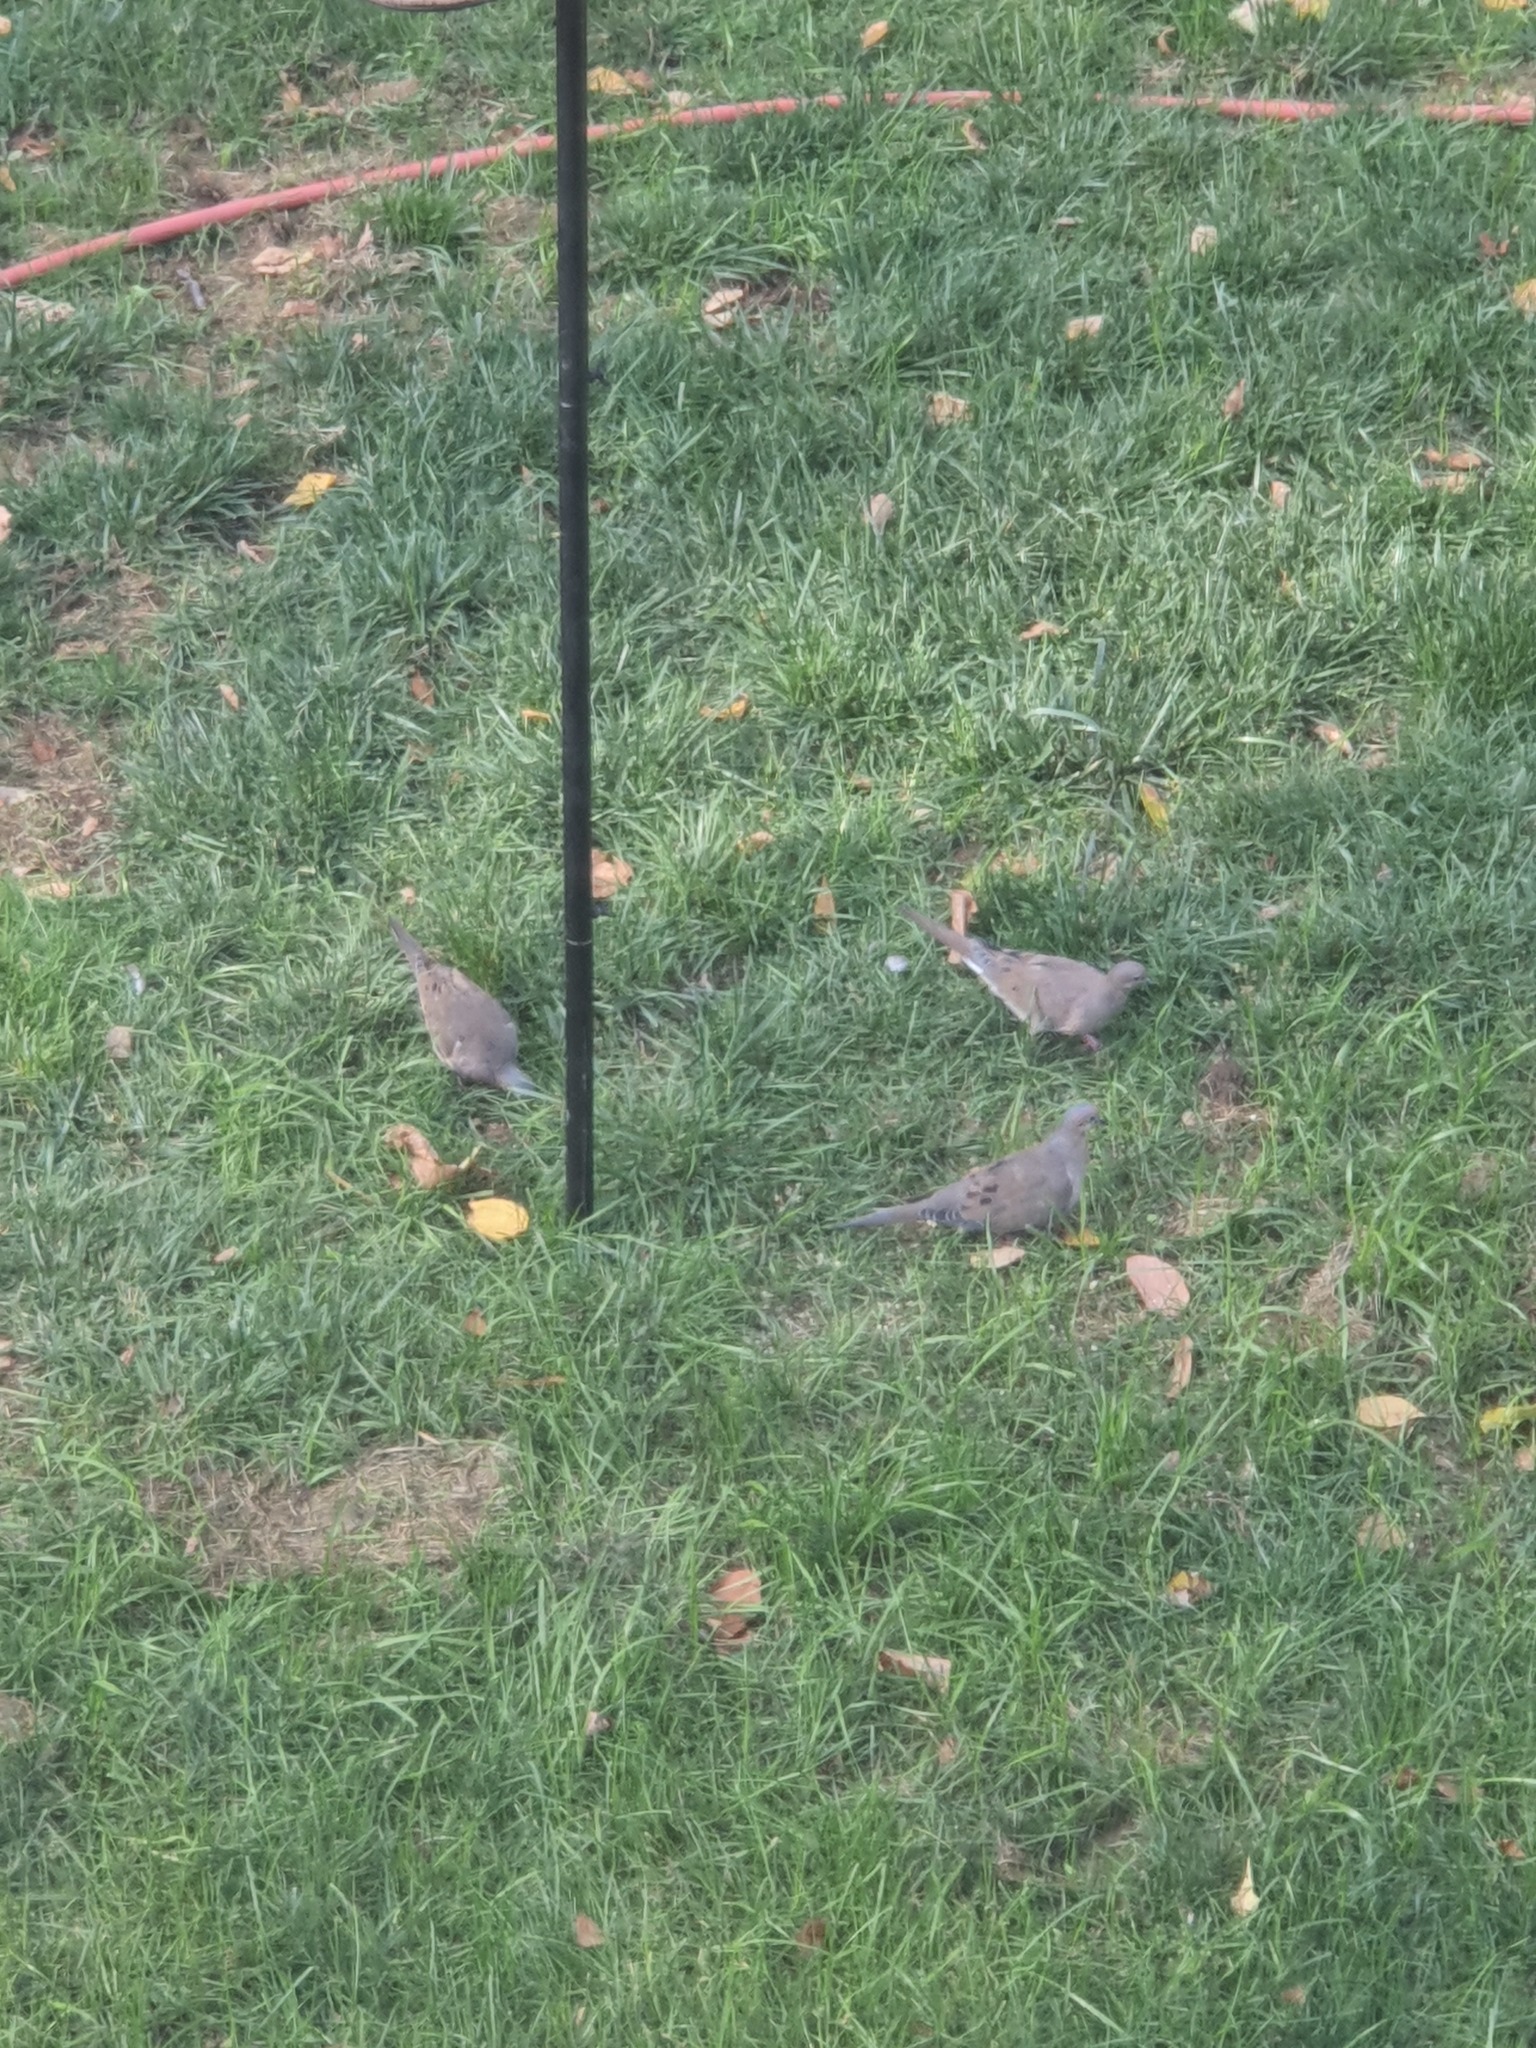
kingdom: Animalia
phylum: Chordata
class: Aves
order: Columbiformes
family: Columbidae
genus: Zenaida
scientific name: Zenaida macroura
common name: Mourning dove
